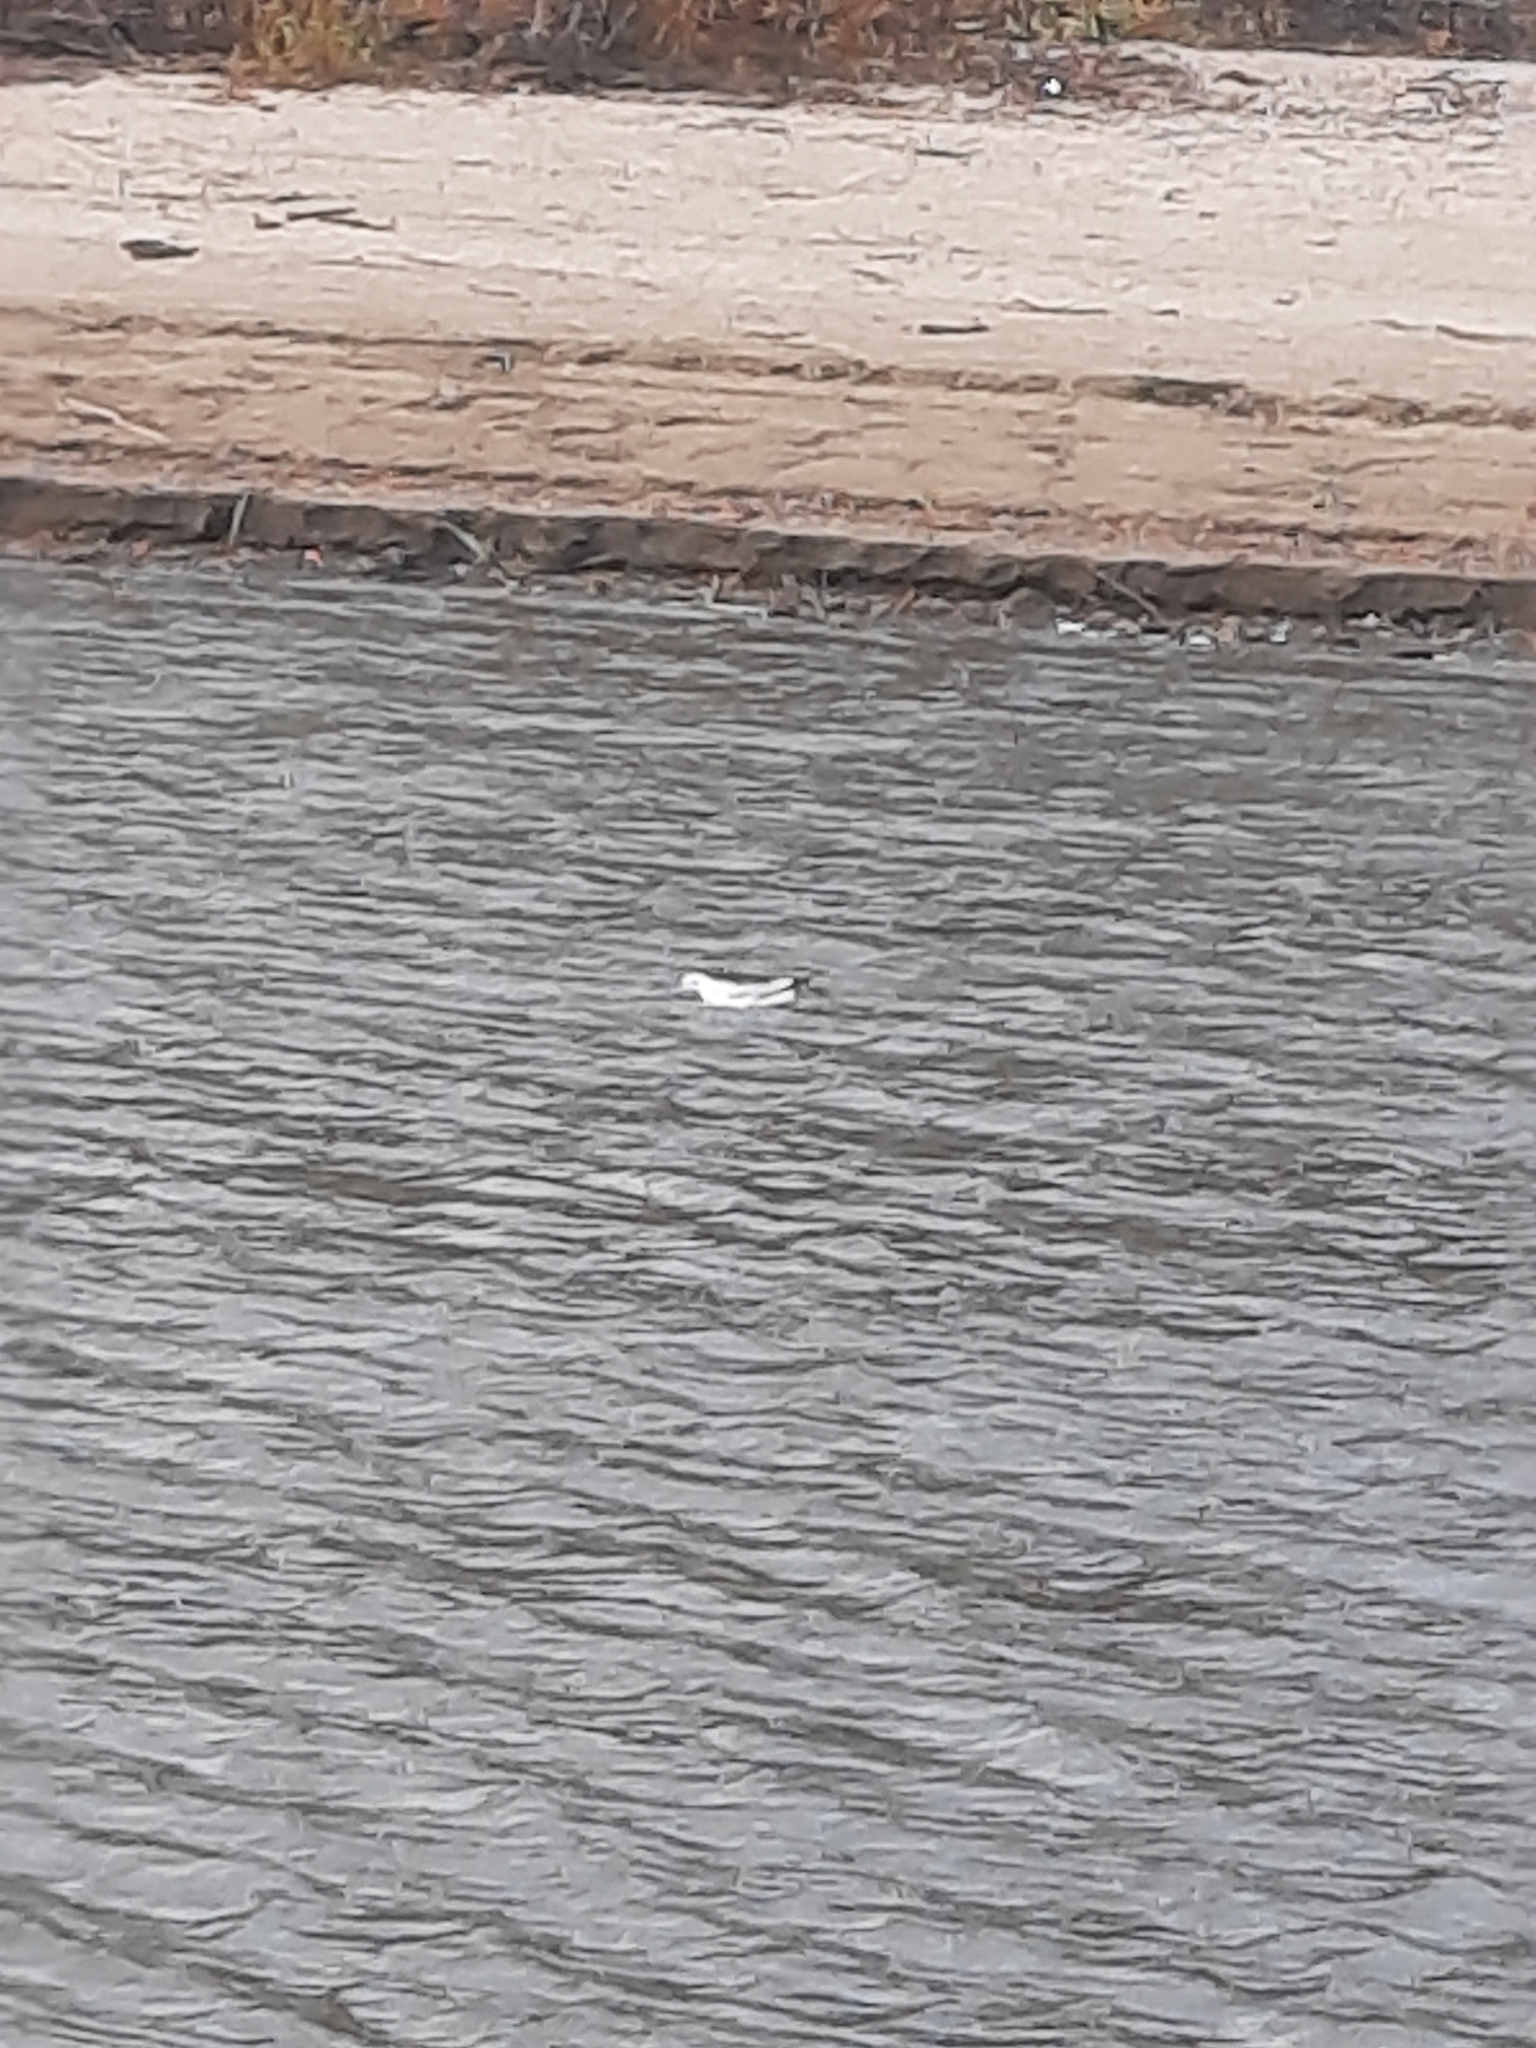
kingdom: Animalia
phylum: Chordata
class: Aves
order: Charadriiformes
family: Laridae
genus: Chroicocephalus
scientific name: Chroicocephalus ridibundus
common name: Black-headed gull
